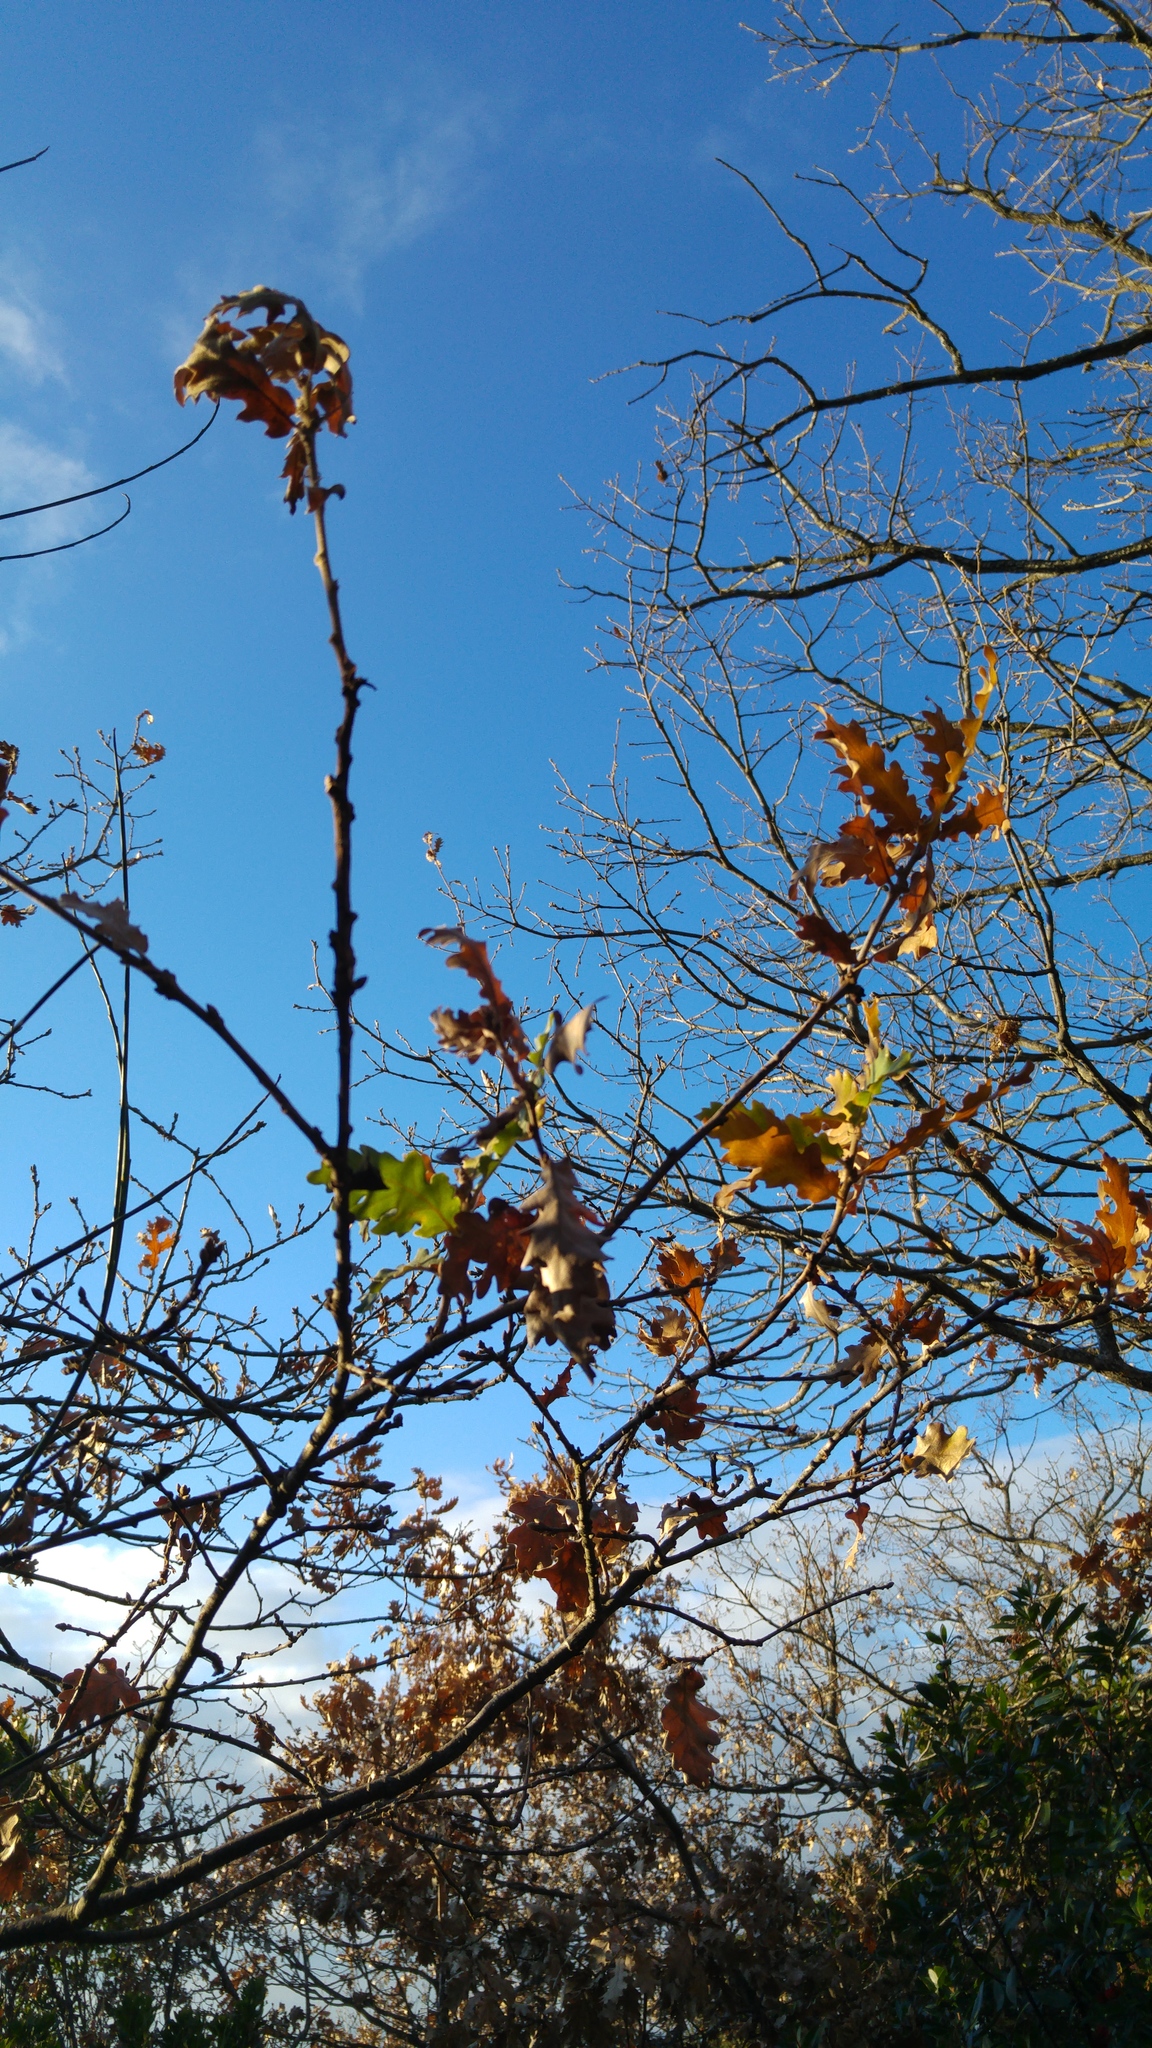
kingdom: Animalia
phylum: Arthropoda
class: Insecta
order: Hymenoptera
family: Cynipidae
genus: Andricus
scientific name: Andricus quercustozae
